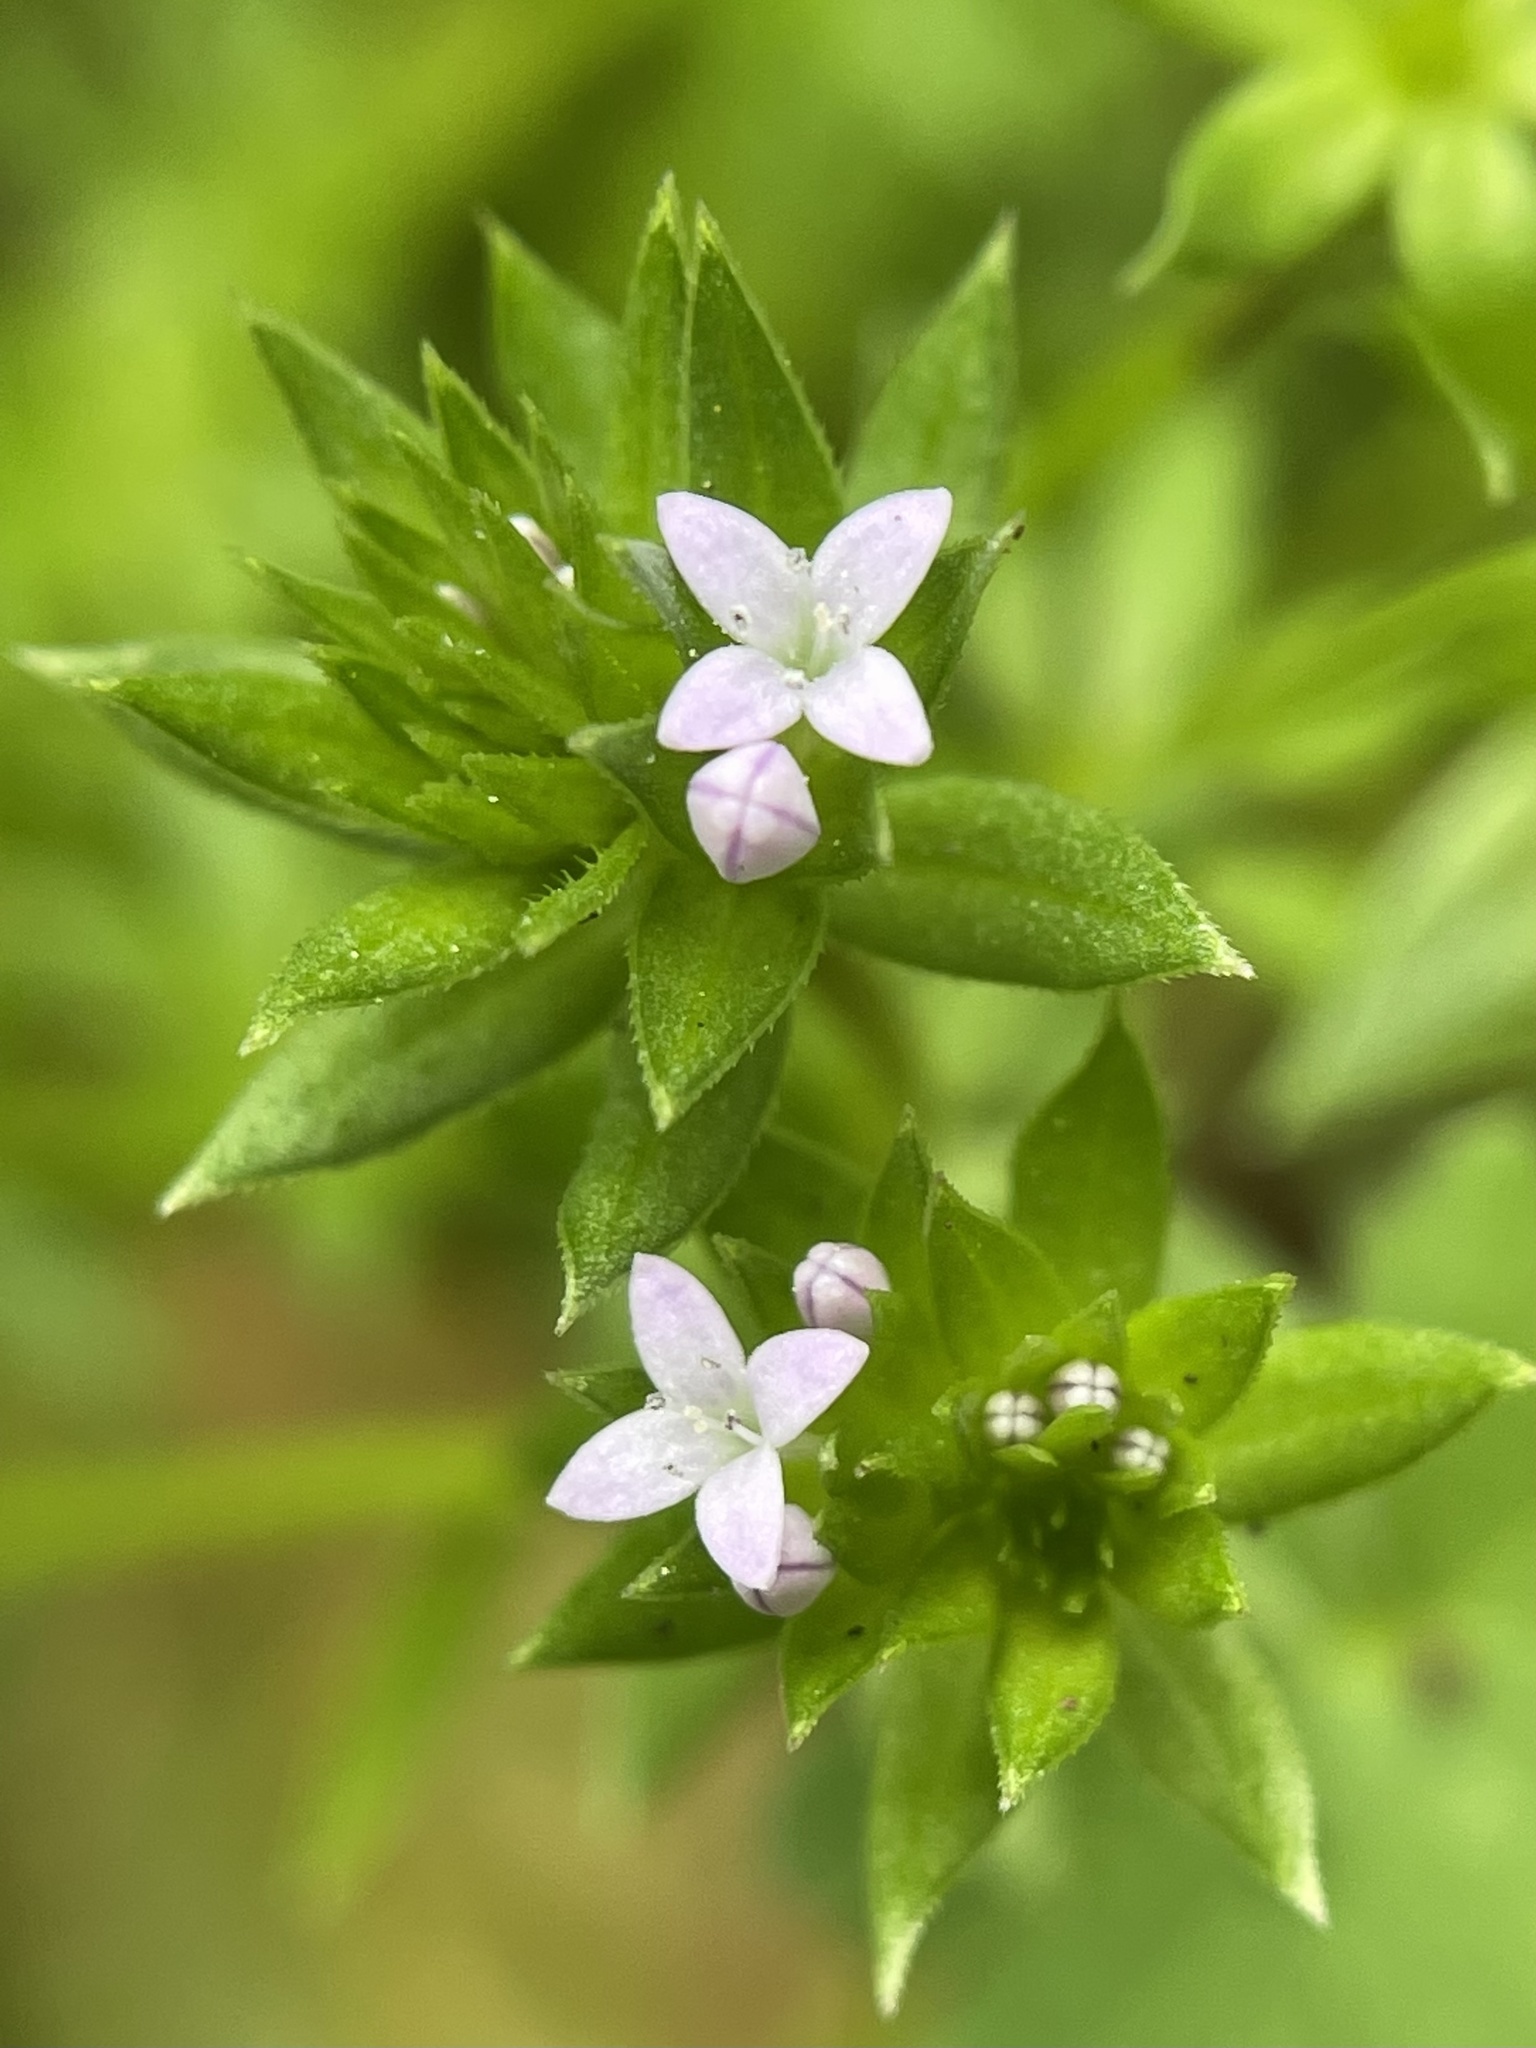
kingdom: Plantae
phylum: Tracheophyta
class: Magnoliopsida
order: Gentianales
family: Rubiaceae
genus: Sherardia
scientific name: Sherardia arvensis
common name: Field madder
